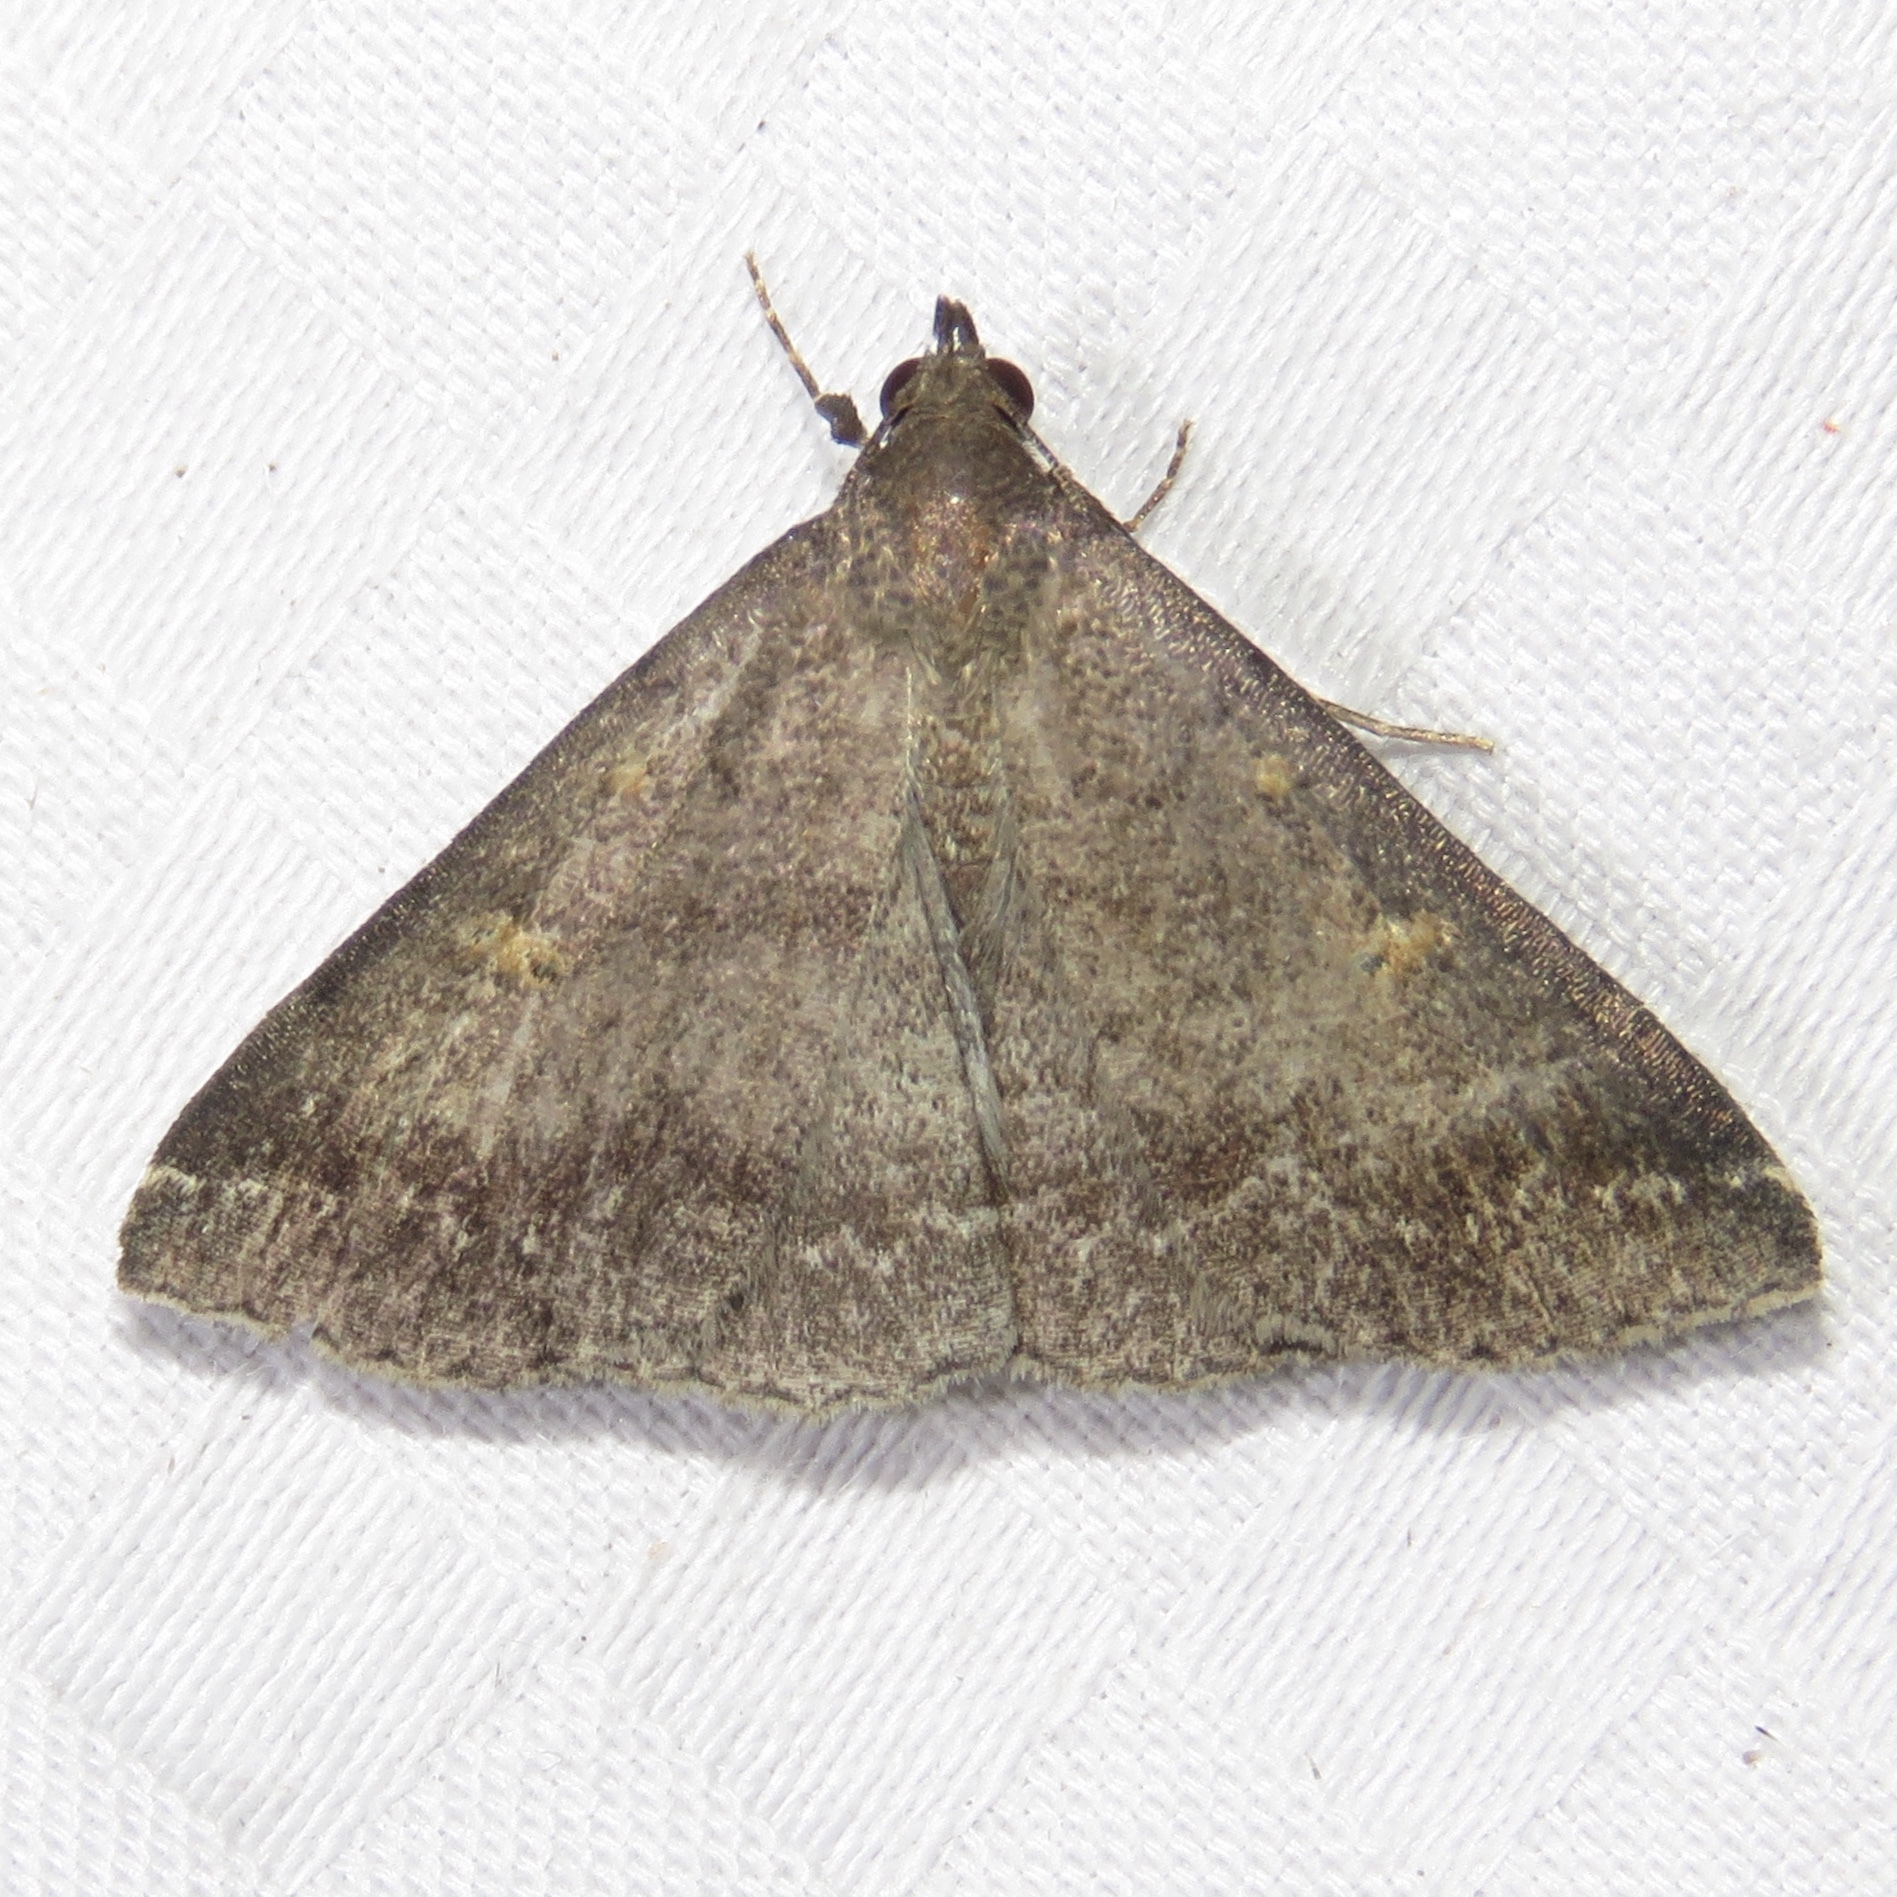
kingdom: Animalia
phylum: Arthropoda
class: Insecta
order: Lepidoptera
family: Erebidae
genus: Renia
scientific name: Renia sobrialis
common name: Sober renia moth
